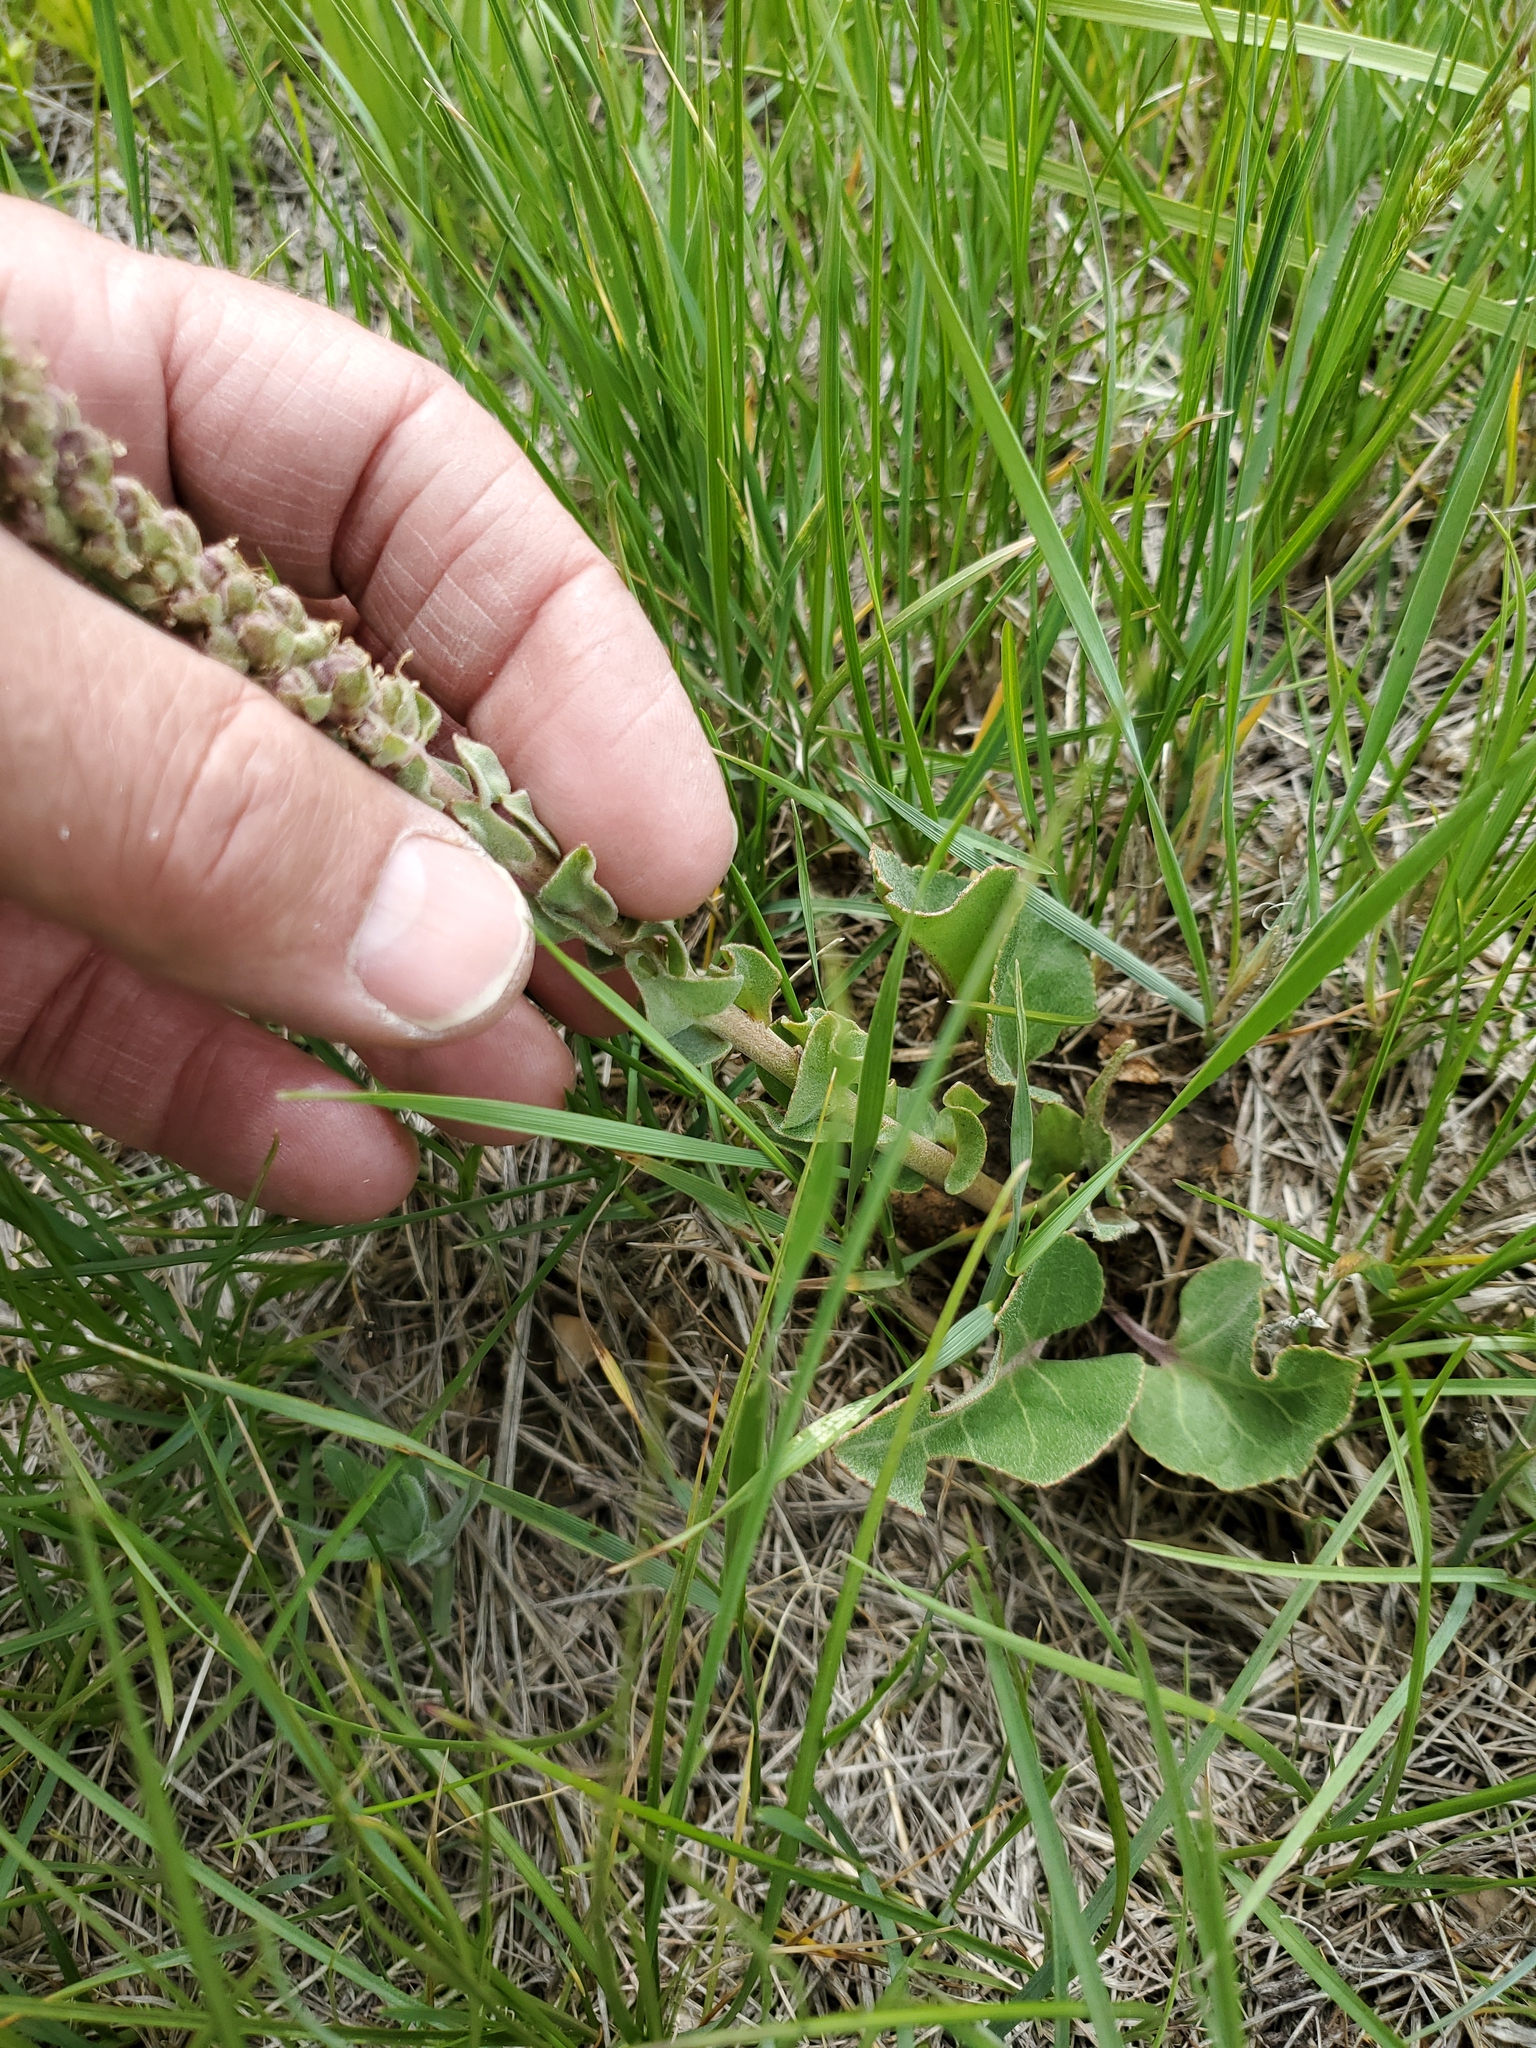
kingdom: Plantae
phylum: Tracheophyta
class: Magnoliopsida
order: Lamiales
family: Plantaginaceae
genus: Synthyris
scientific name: Synthyris wyomingensis
